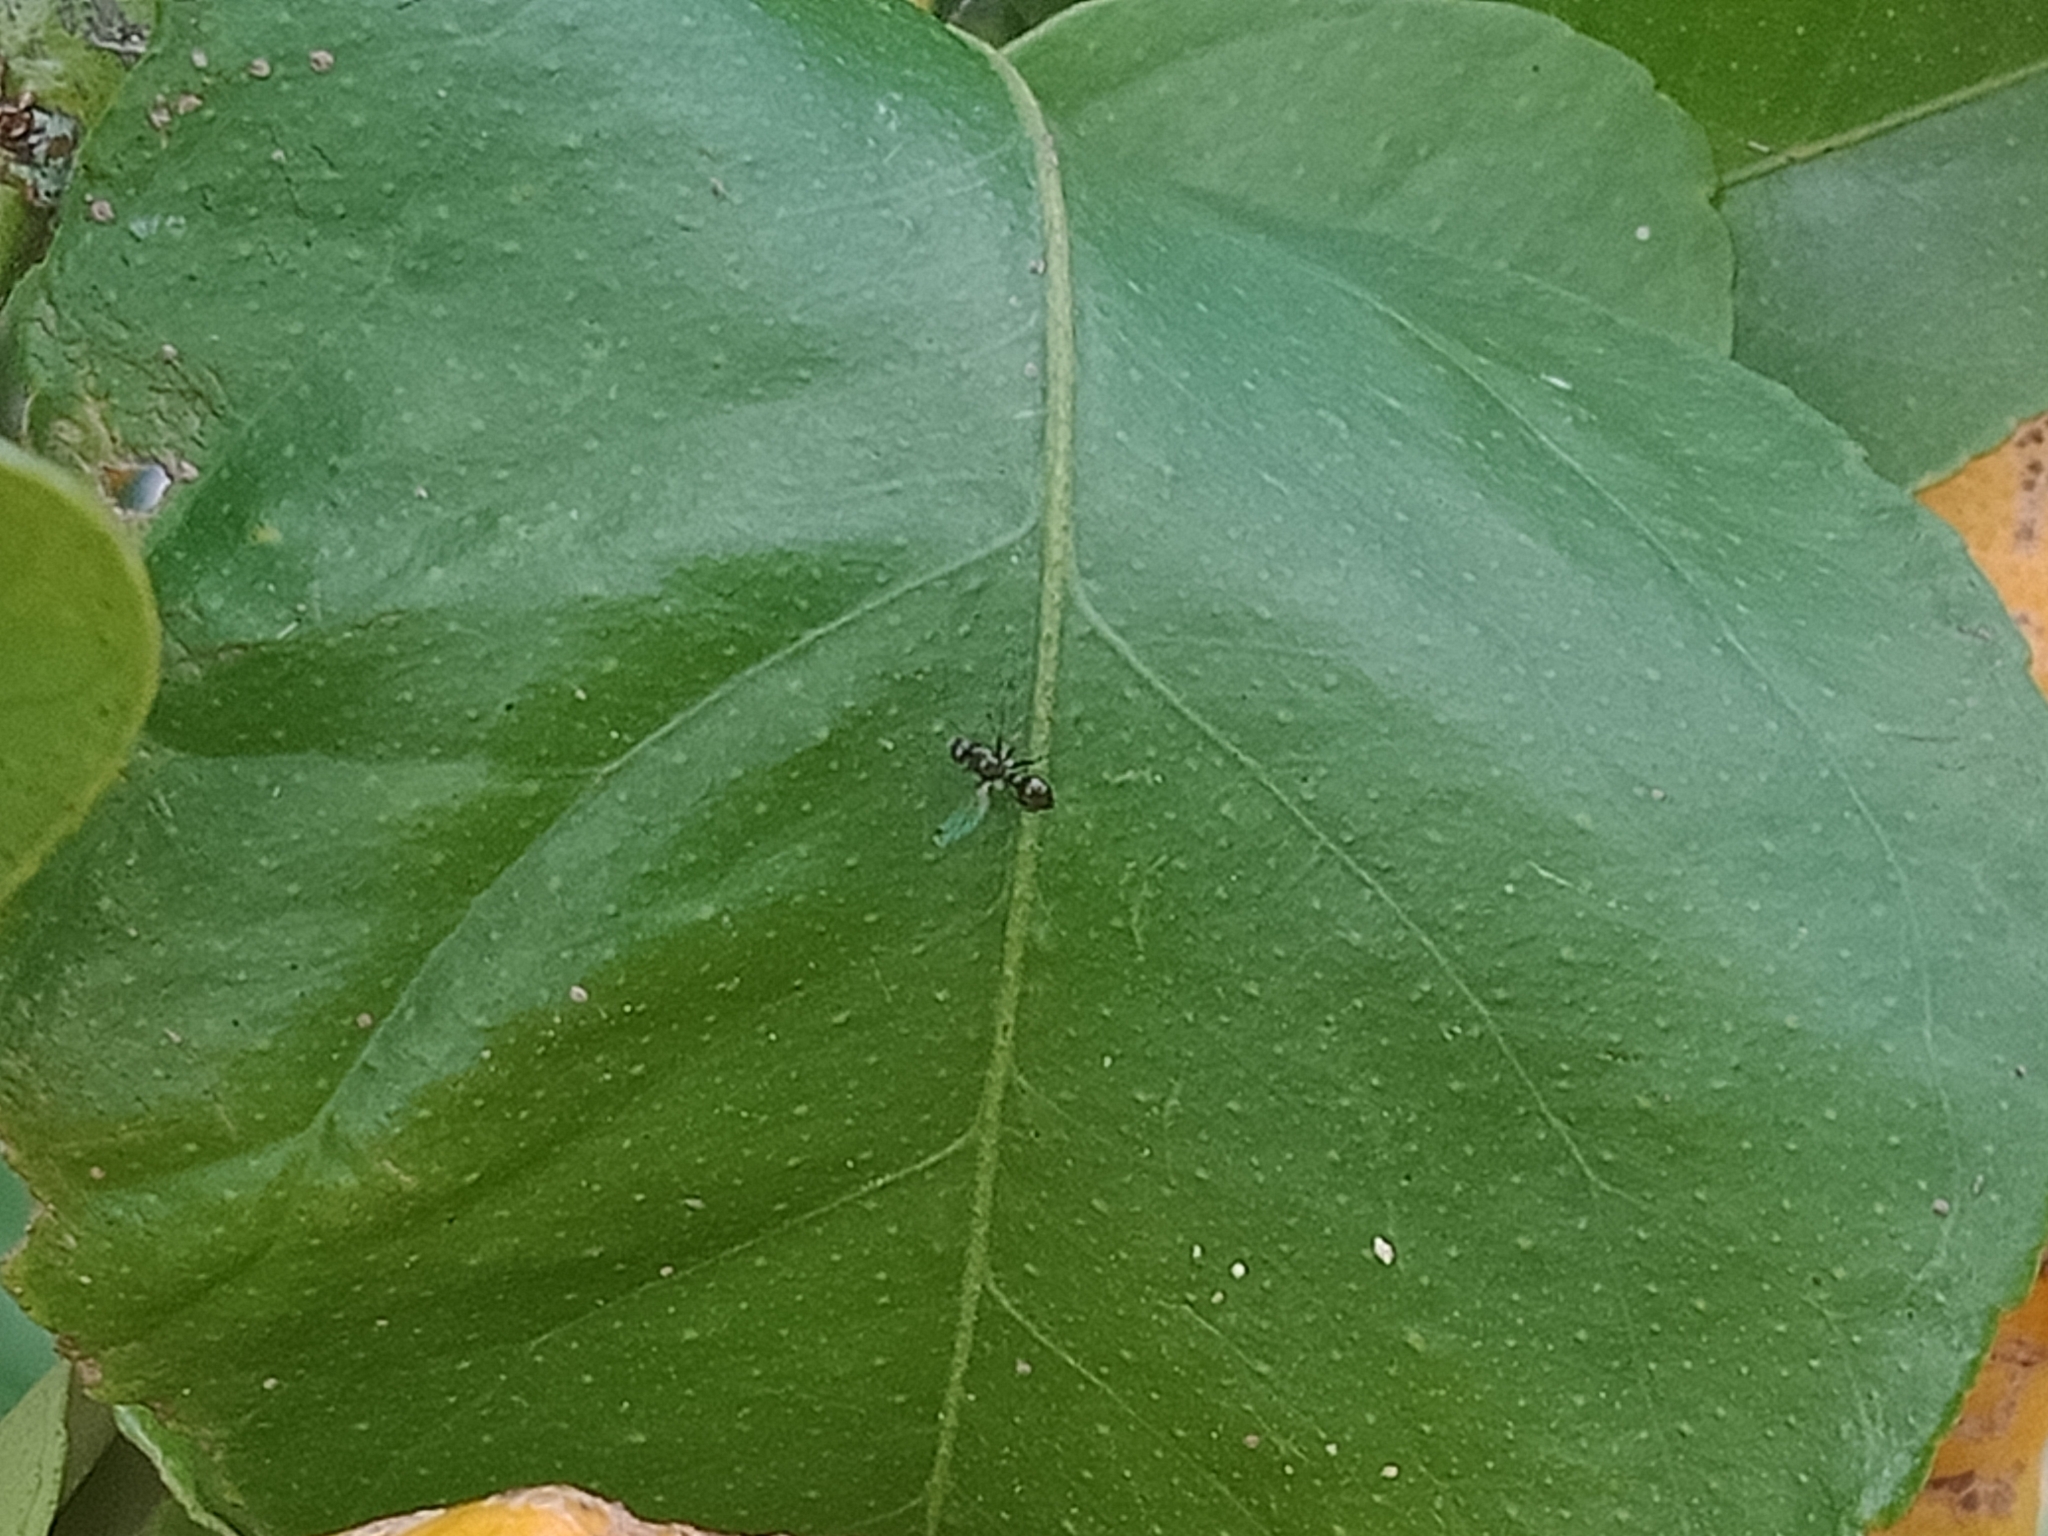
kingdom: Animalia
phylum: Arthropoda
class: Insecta
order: Diptera
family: Sepsidae
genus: Parapalaeosepsis
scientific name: Parapalaeosepsis plebeia
